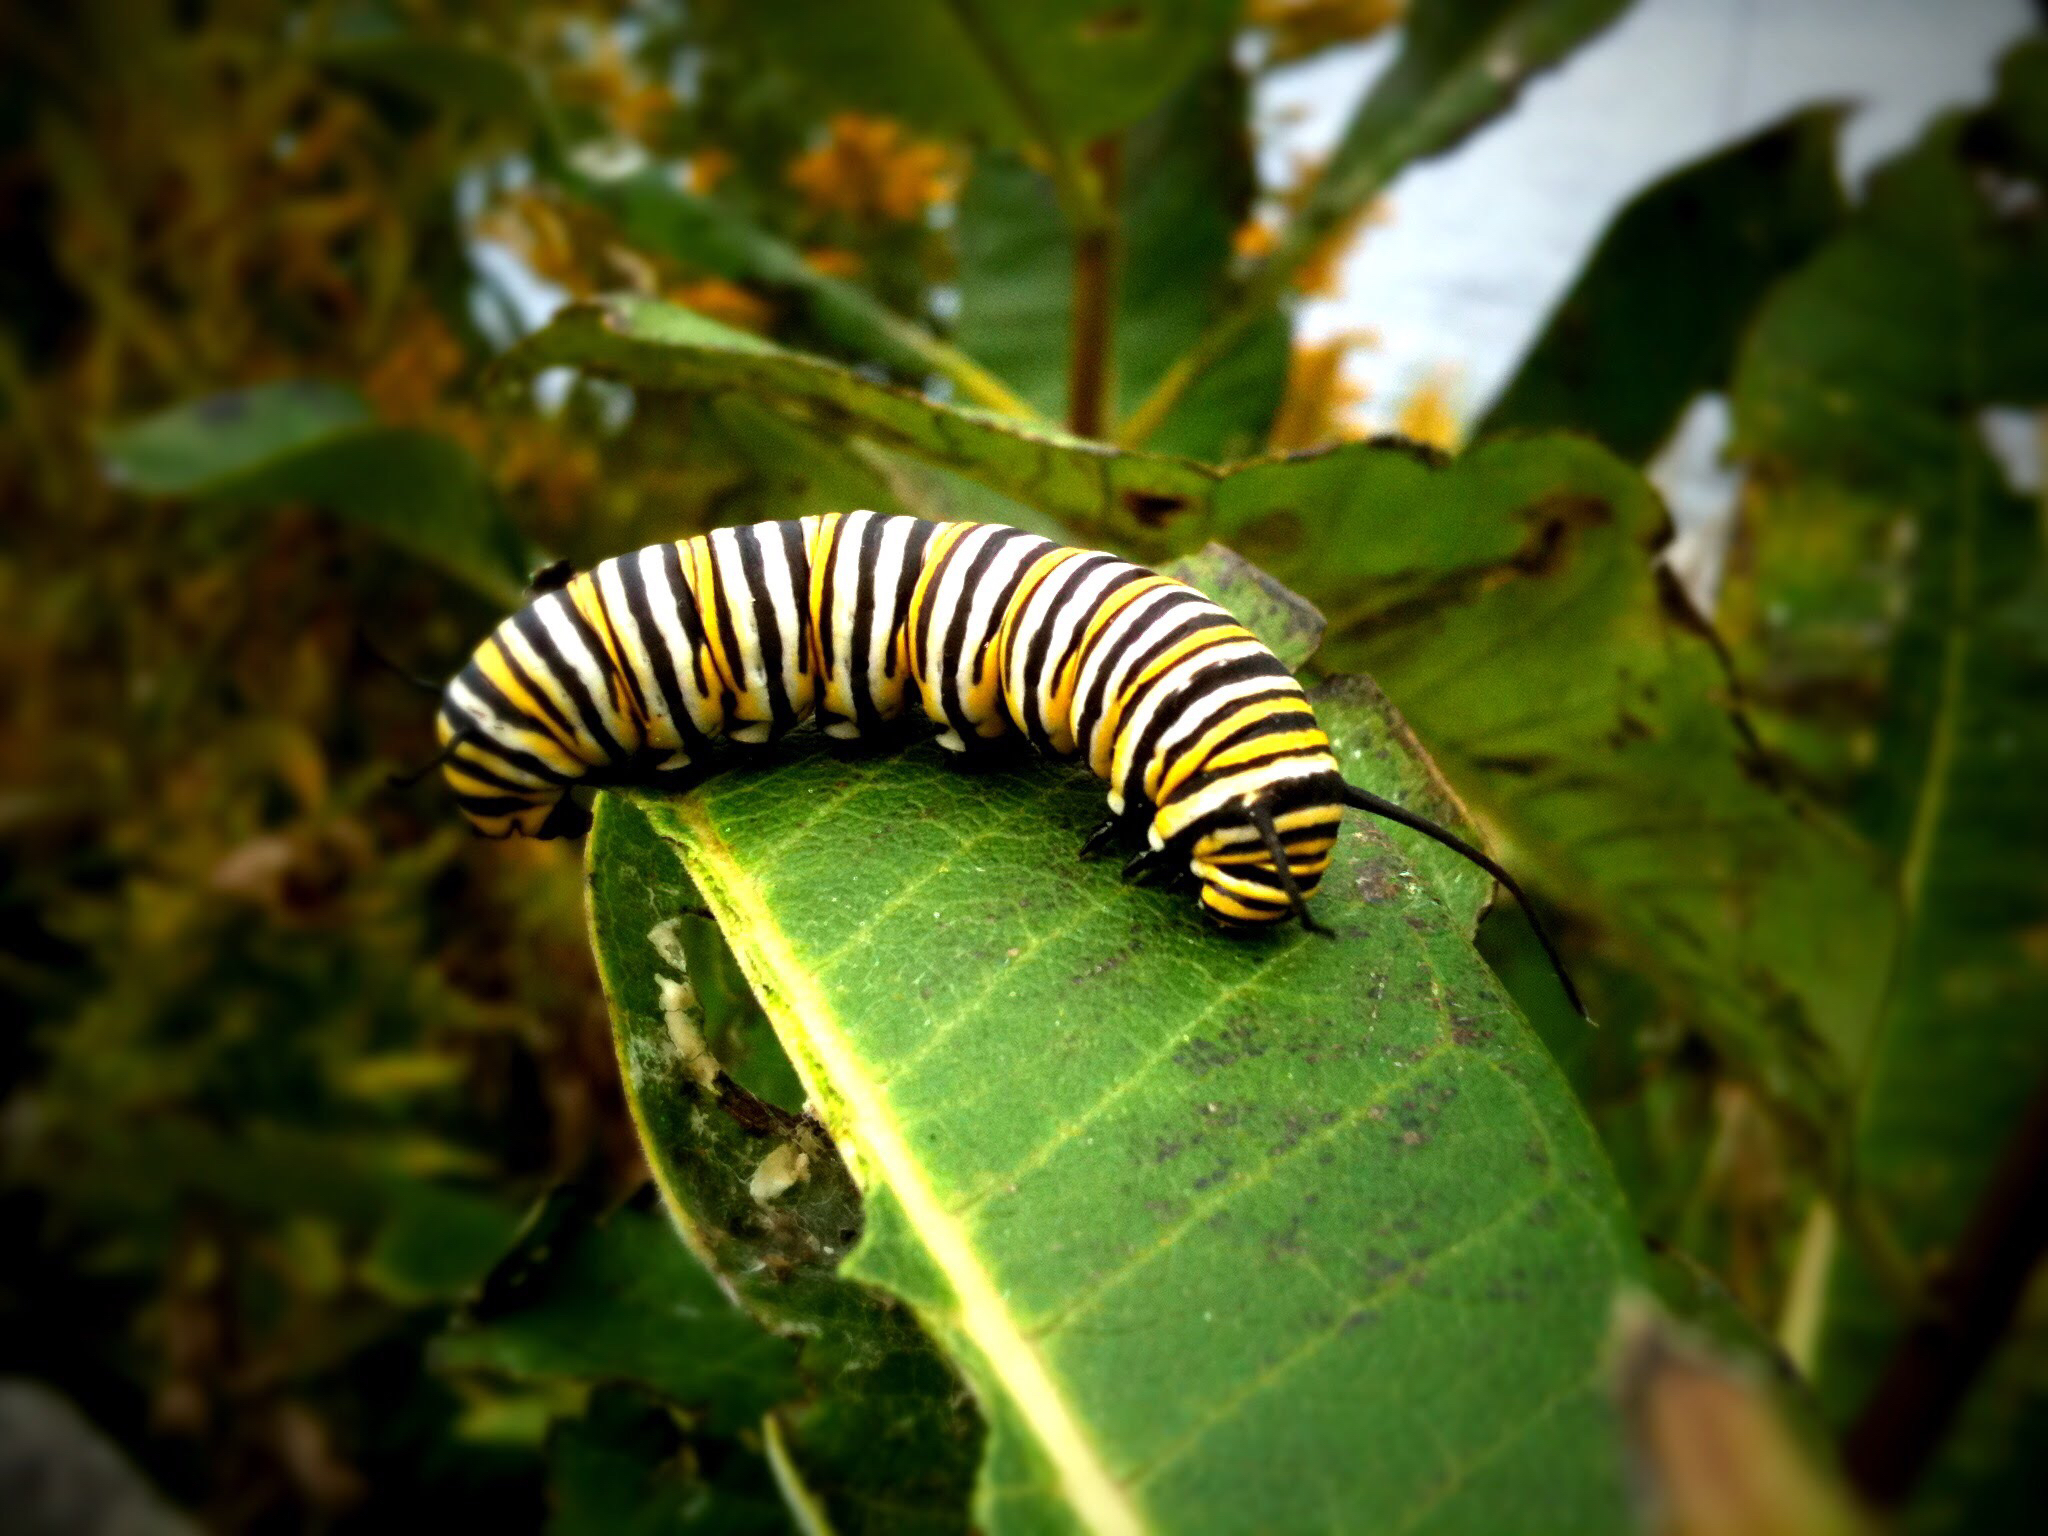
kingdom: Animalia
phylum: Arthropoda
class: Insecta
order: Lepidoptera
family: Nymphalidae
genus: Danaus
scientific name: Danaus plexippus
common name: Monarch
